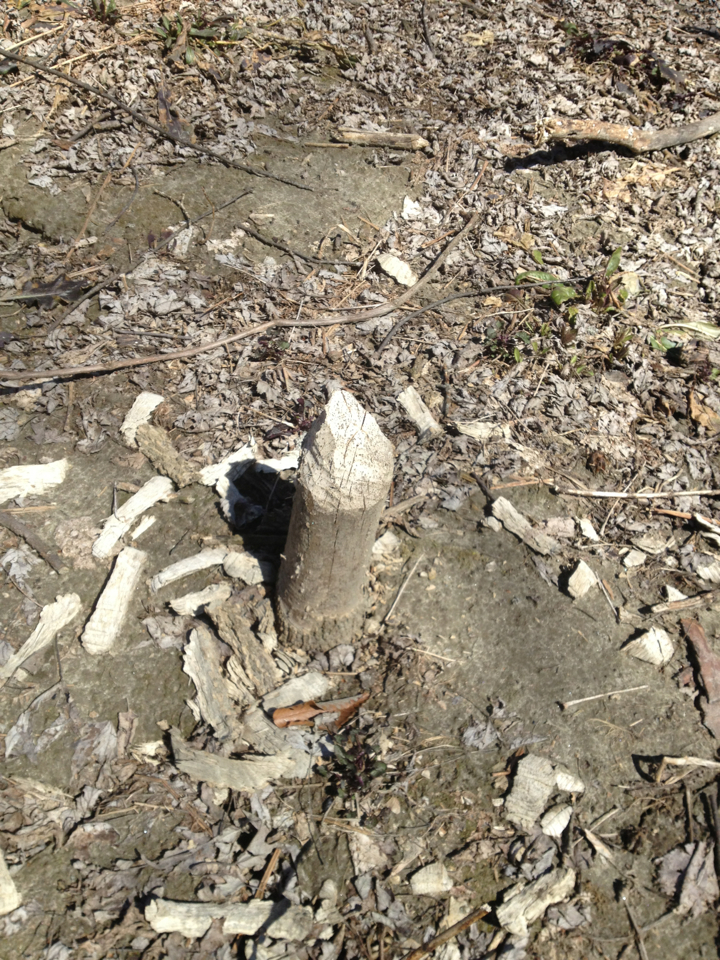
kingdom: Animalia
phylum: Chordata
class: Mammalia
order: Rodentia
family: Castoridae
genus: Castor
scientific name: Castor canadensis
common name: American beaver
